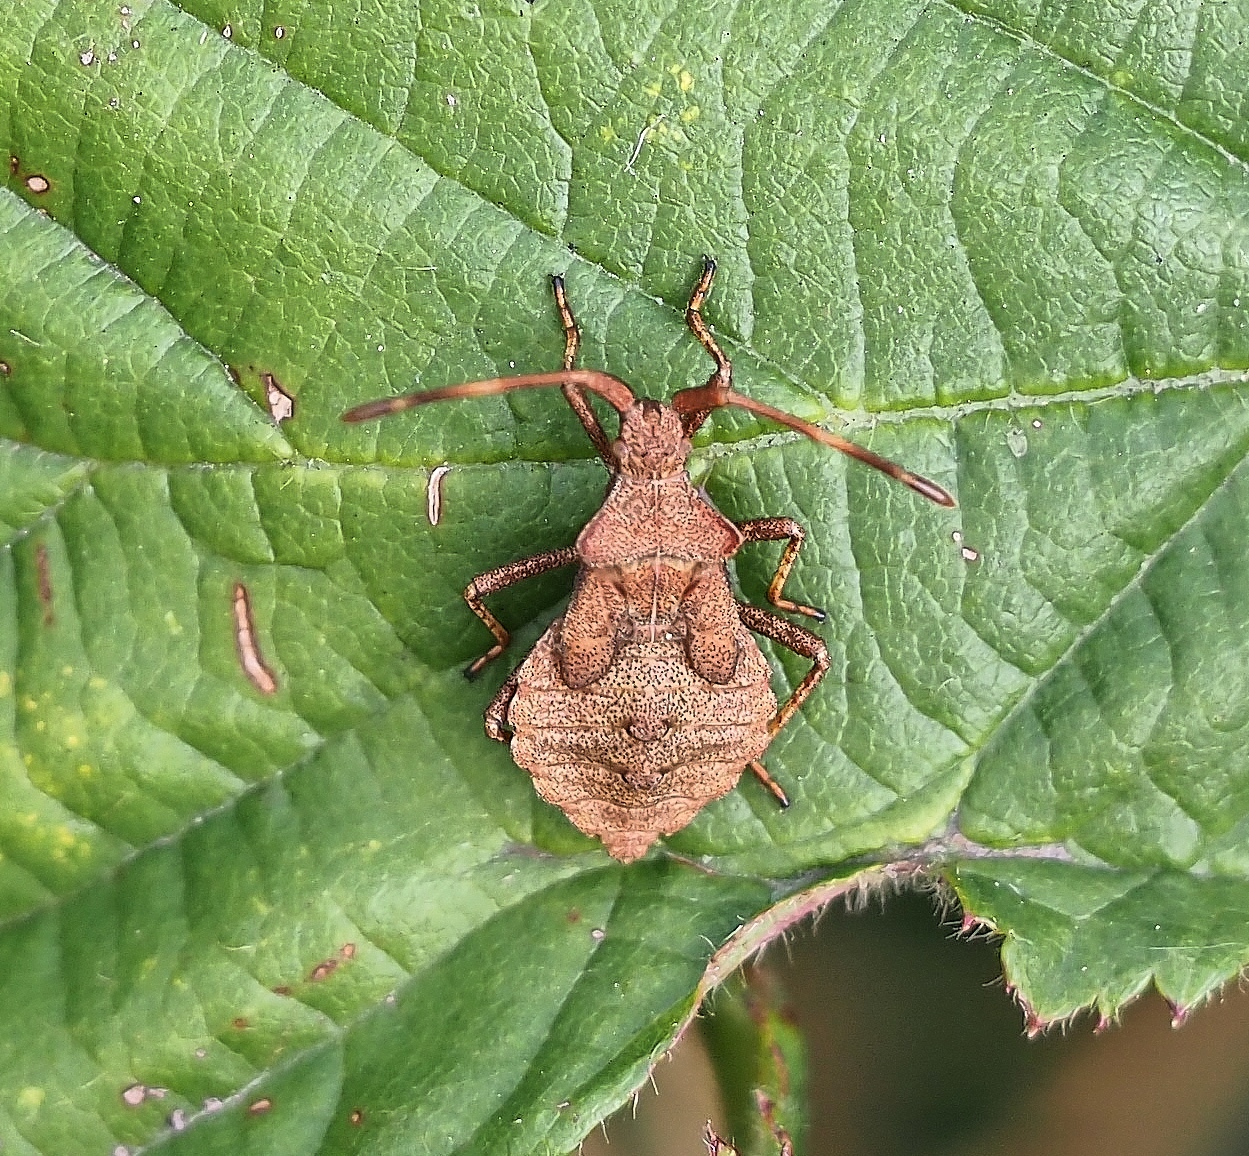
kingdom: Animalia
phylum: Arthropoda
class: Insecta
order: Hemiptera
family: Coreidae
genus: Coreus
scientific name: Coreus marginatus
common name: Dock bug
